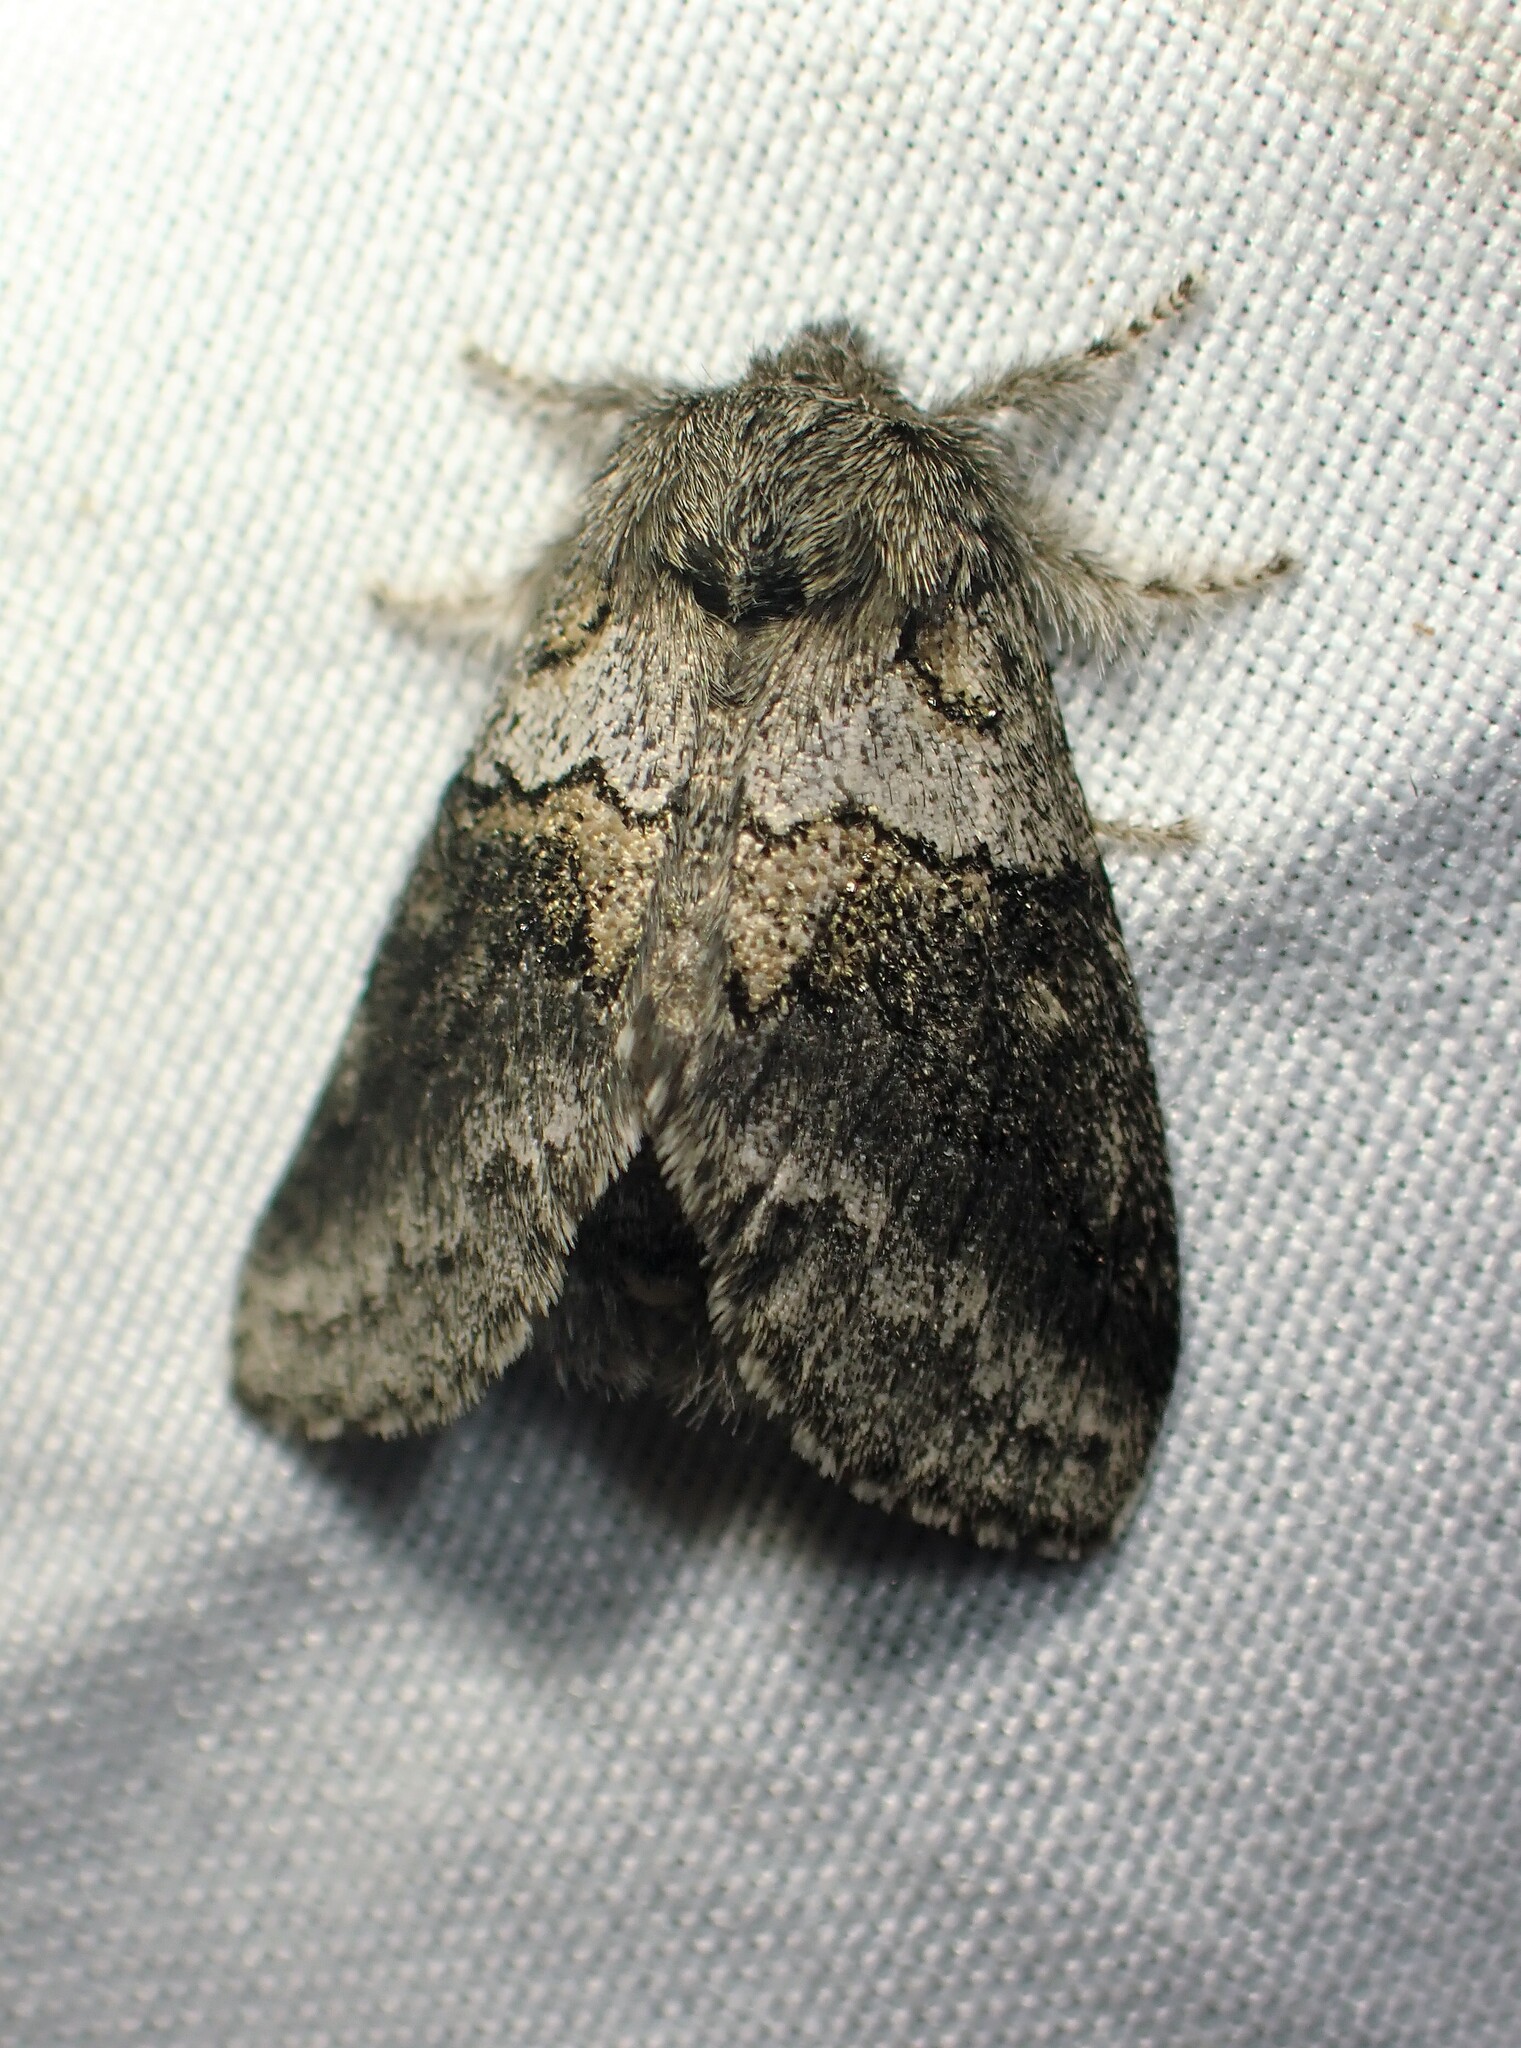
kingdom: Animalia
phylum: Arthropoda
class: Insecta
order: Lepidoptera
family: Notodontidae
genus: Gluphisia
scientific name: Gluphisia septentrionis
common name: Common gluphisia
